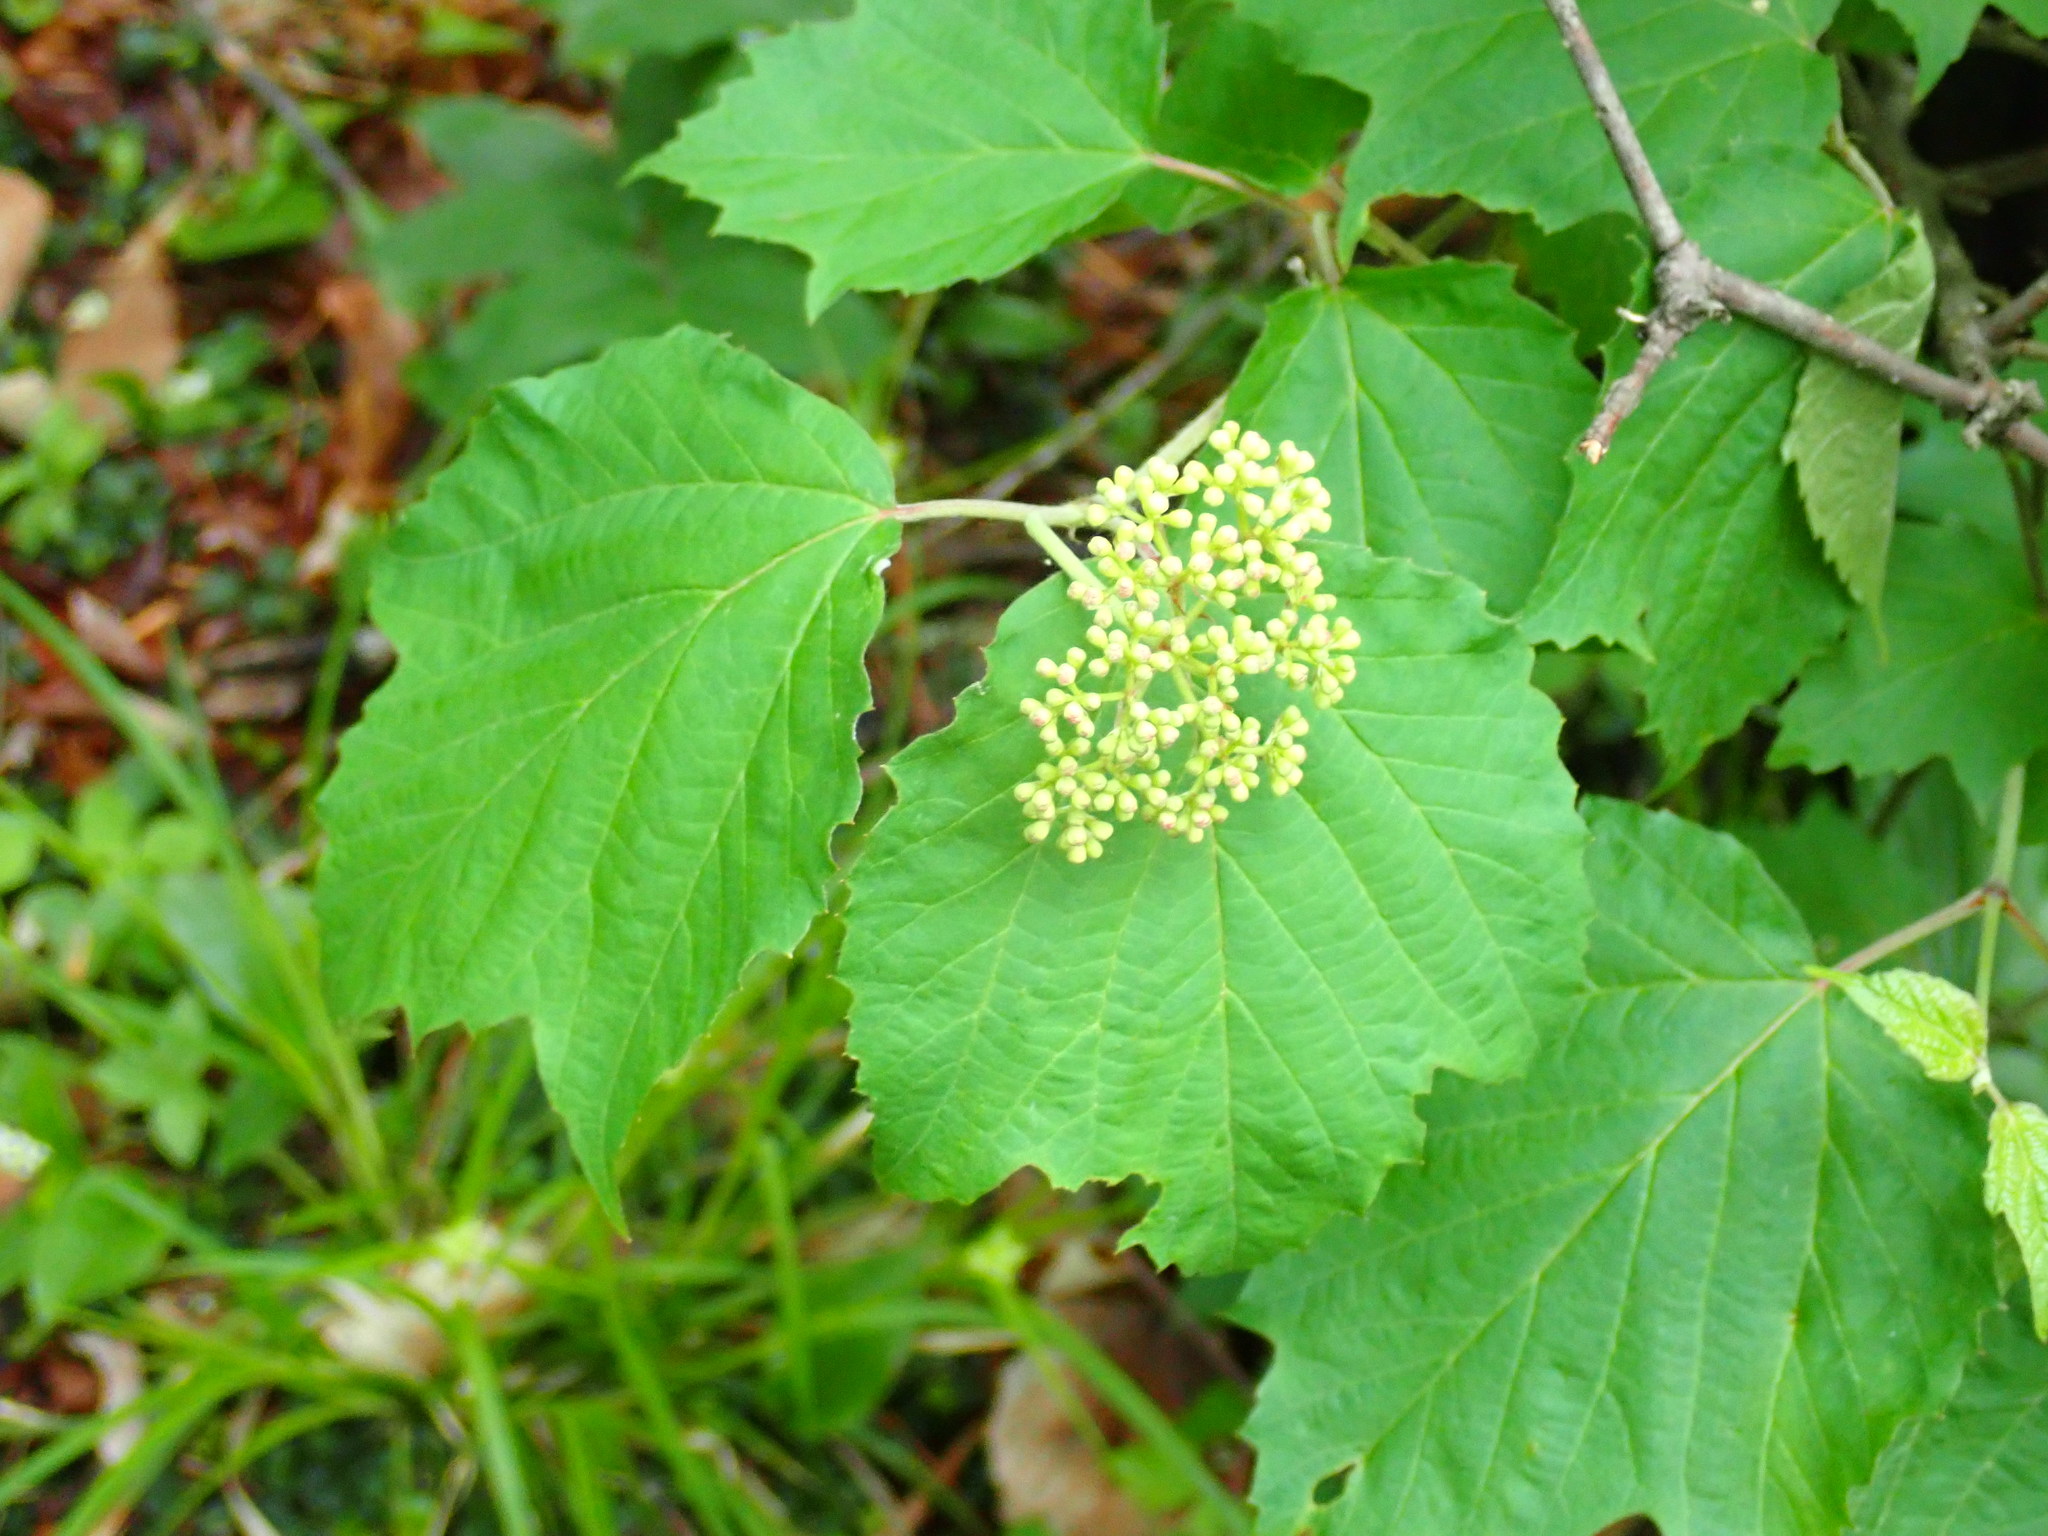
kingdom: Plantae
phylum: Tracheophyta
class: Magnoliopsida
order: Dipsacales
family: Viburnaceae
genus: Viburnum
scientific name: Viburnum acerifolium
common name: Dockmackie
